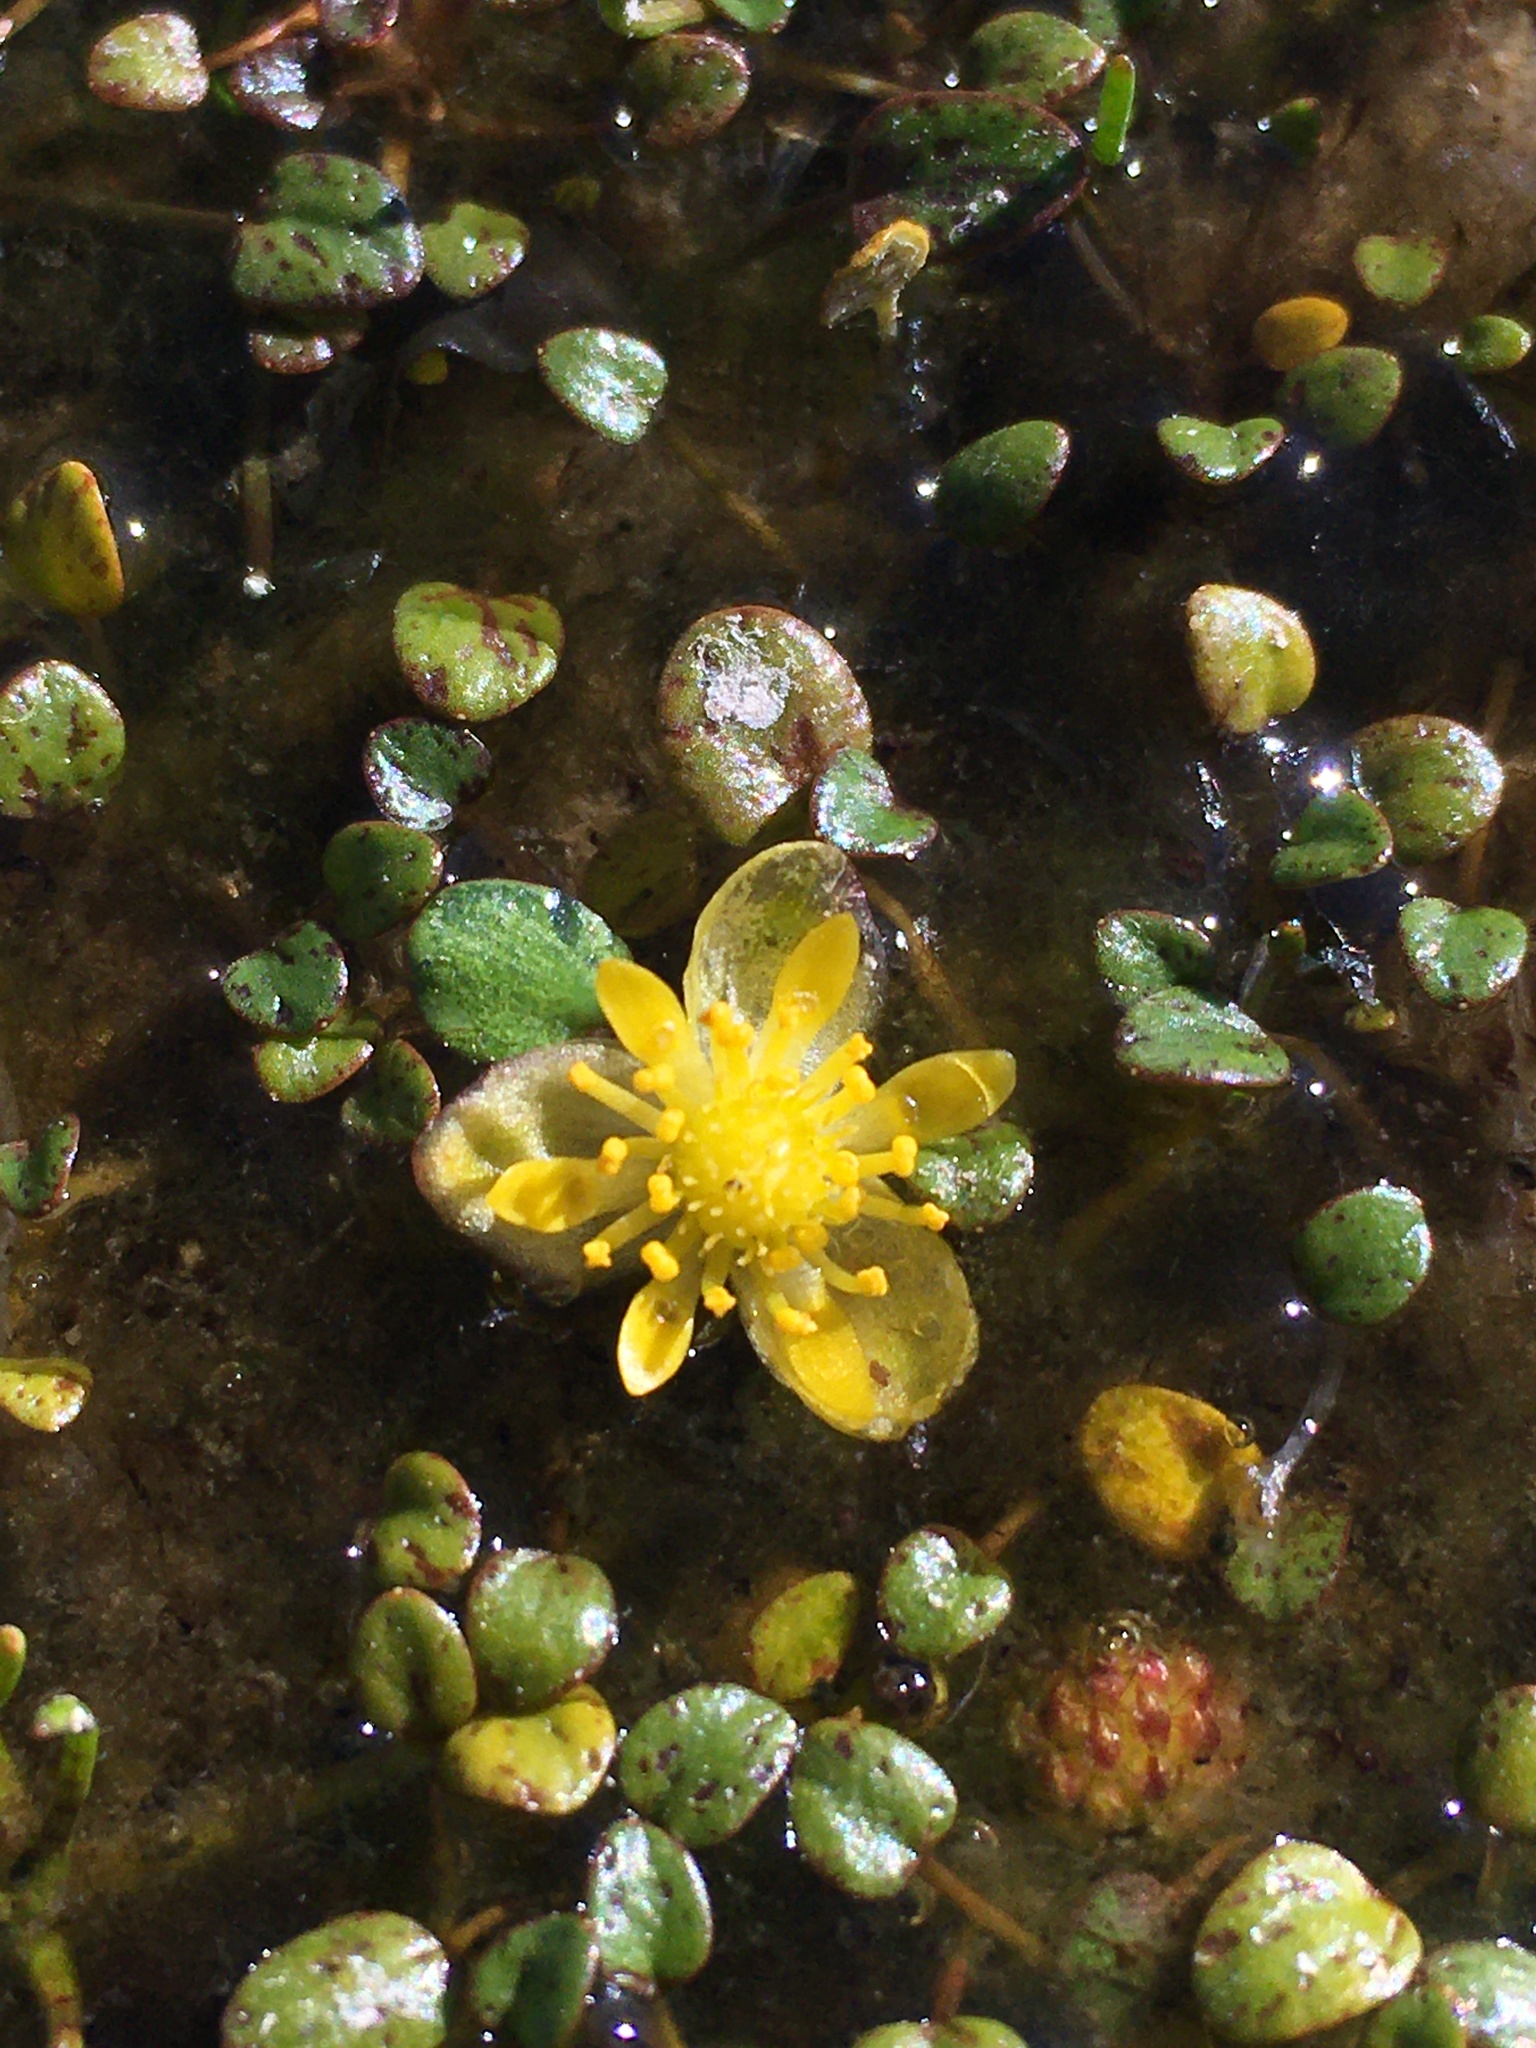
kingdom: Plantae
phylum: Tracheophyta
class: Magnoliopsida
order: Ranunculales
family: Ranunculaceae
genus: Halerpestes
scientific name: Halerpestes uniflora
